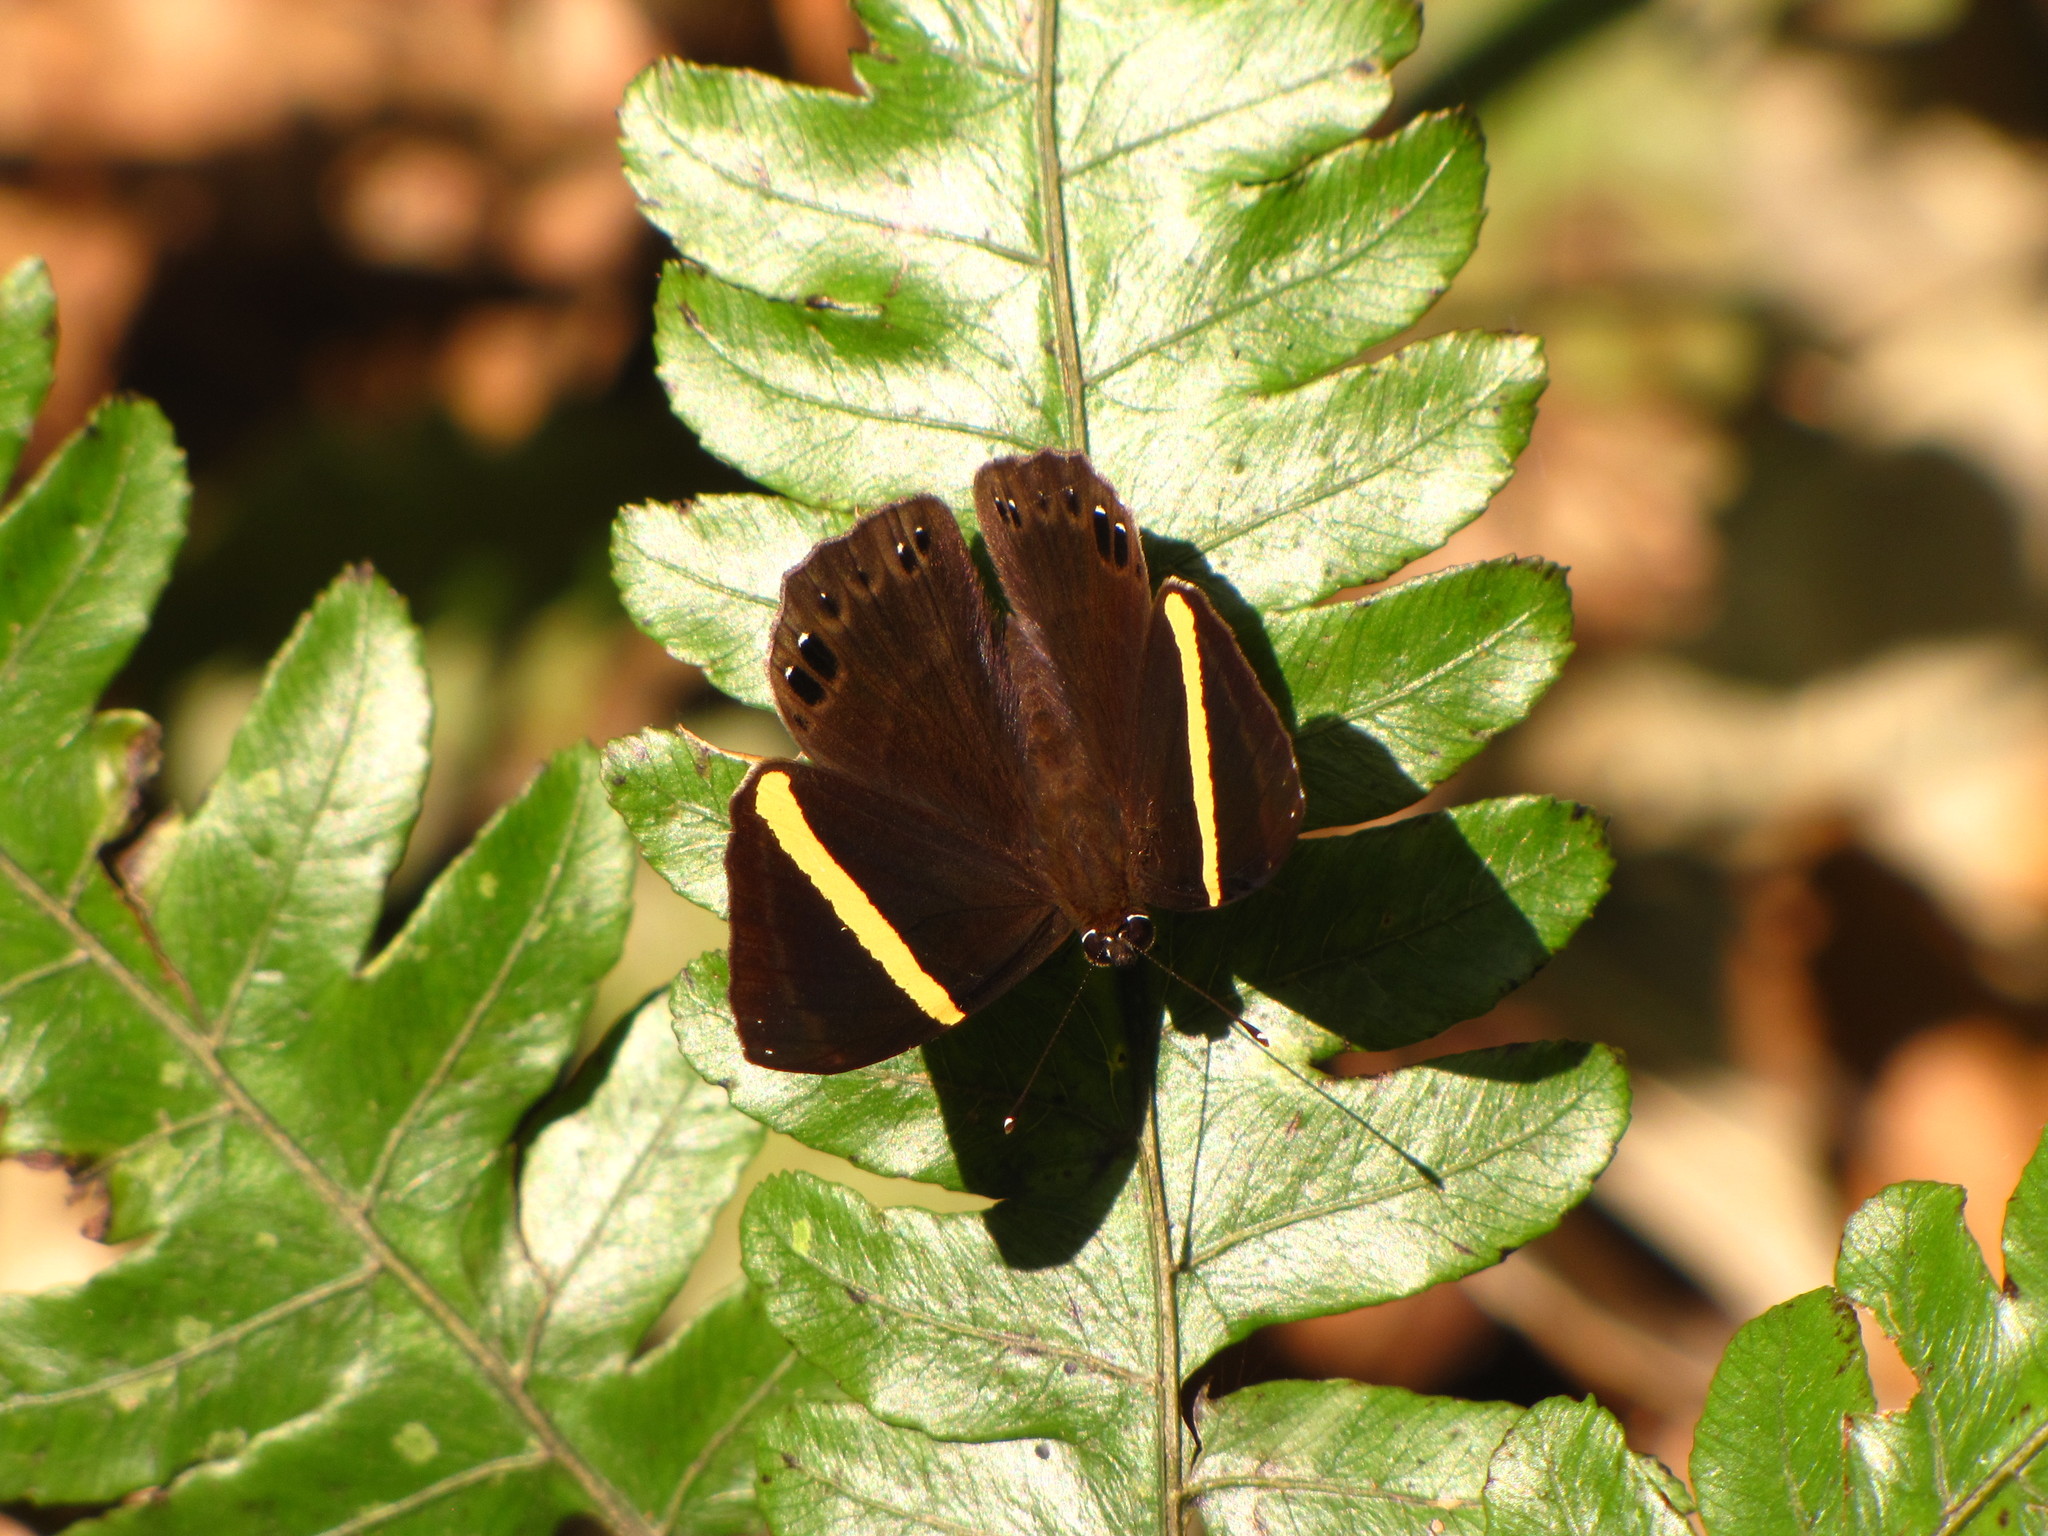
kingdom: Animalia
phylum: Arthropoda
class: Insecta
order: Lepidoptera
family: Lycaenidae
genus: Abisara
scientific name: Abisara fylla
